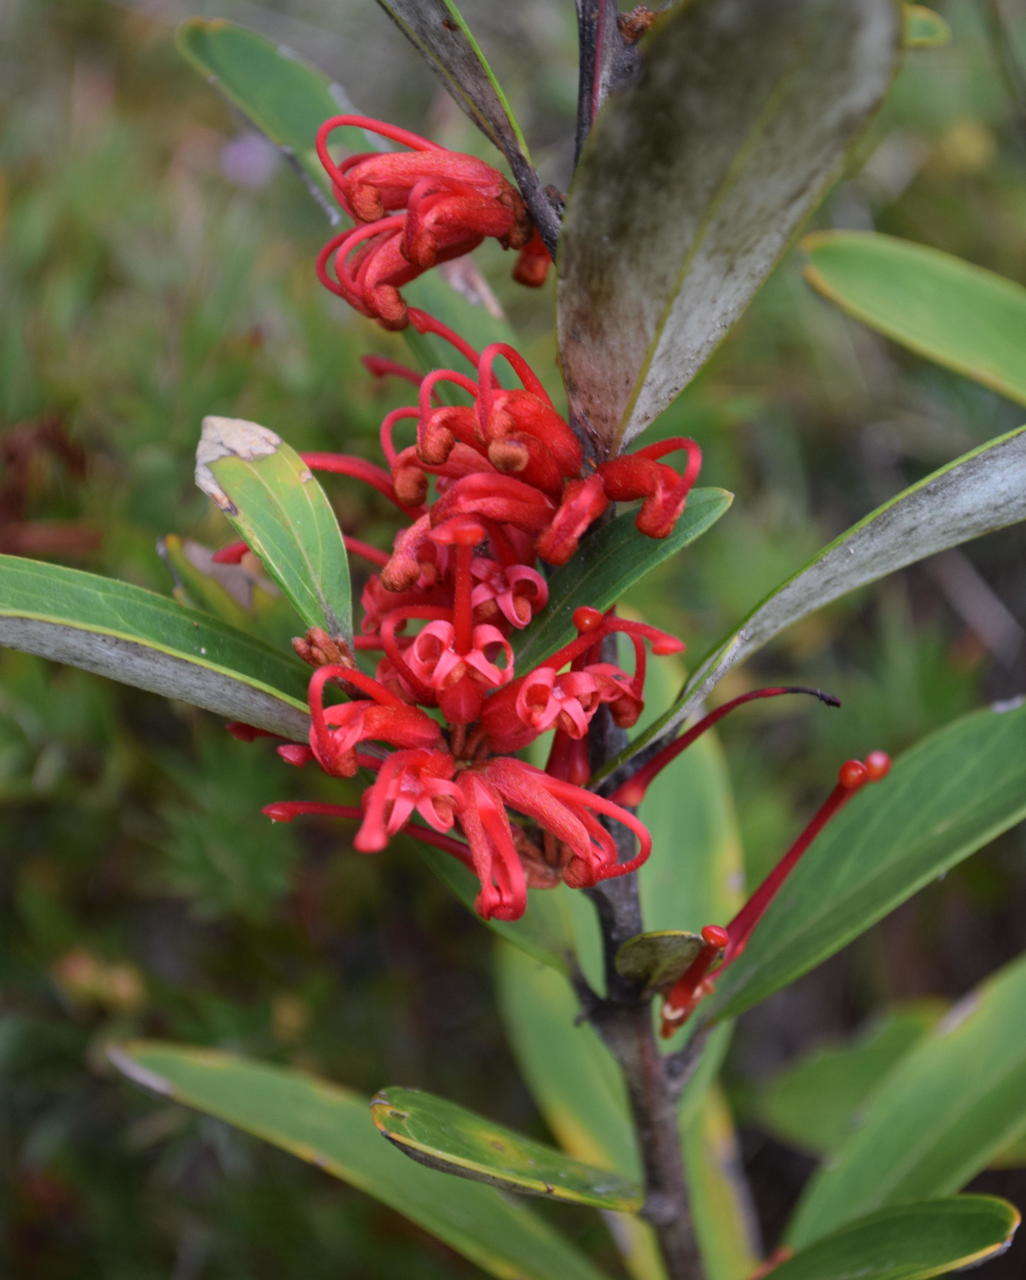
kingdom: Plantae
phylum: Tracheophyta
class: Magnoliopsida
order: Proteales
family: Proteaceae
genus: Grevillea
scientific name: Grevillea dimorpha
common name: Flame grevillea
